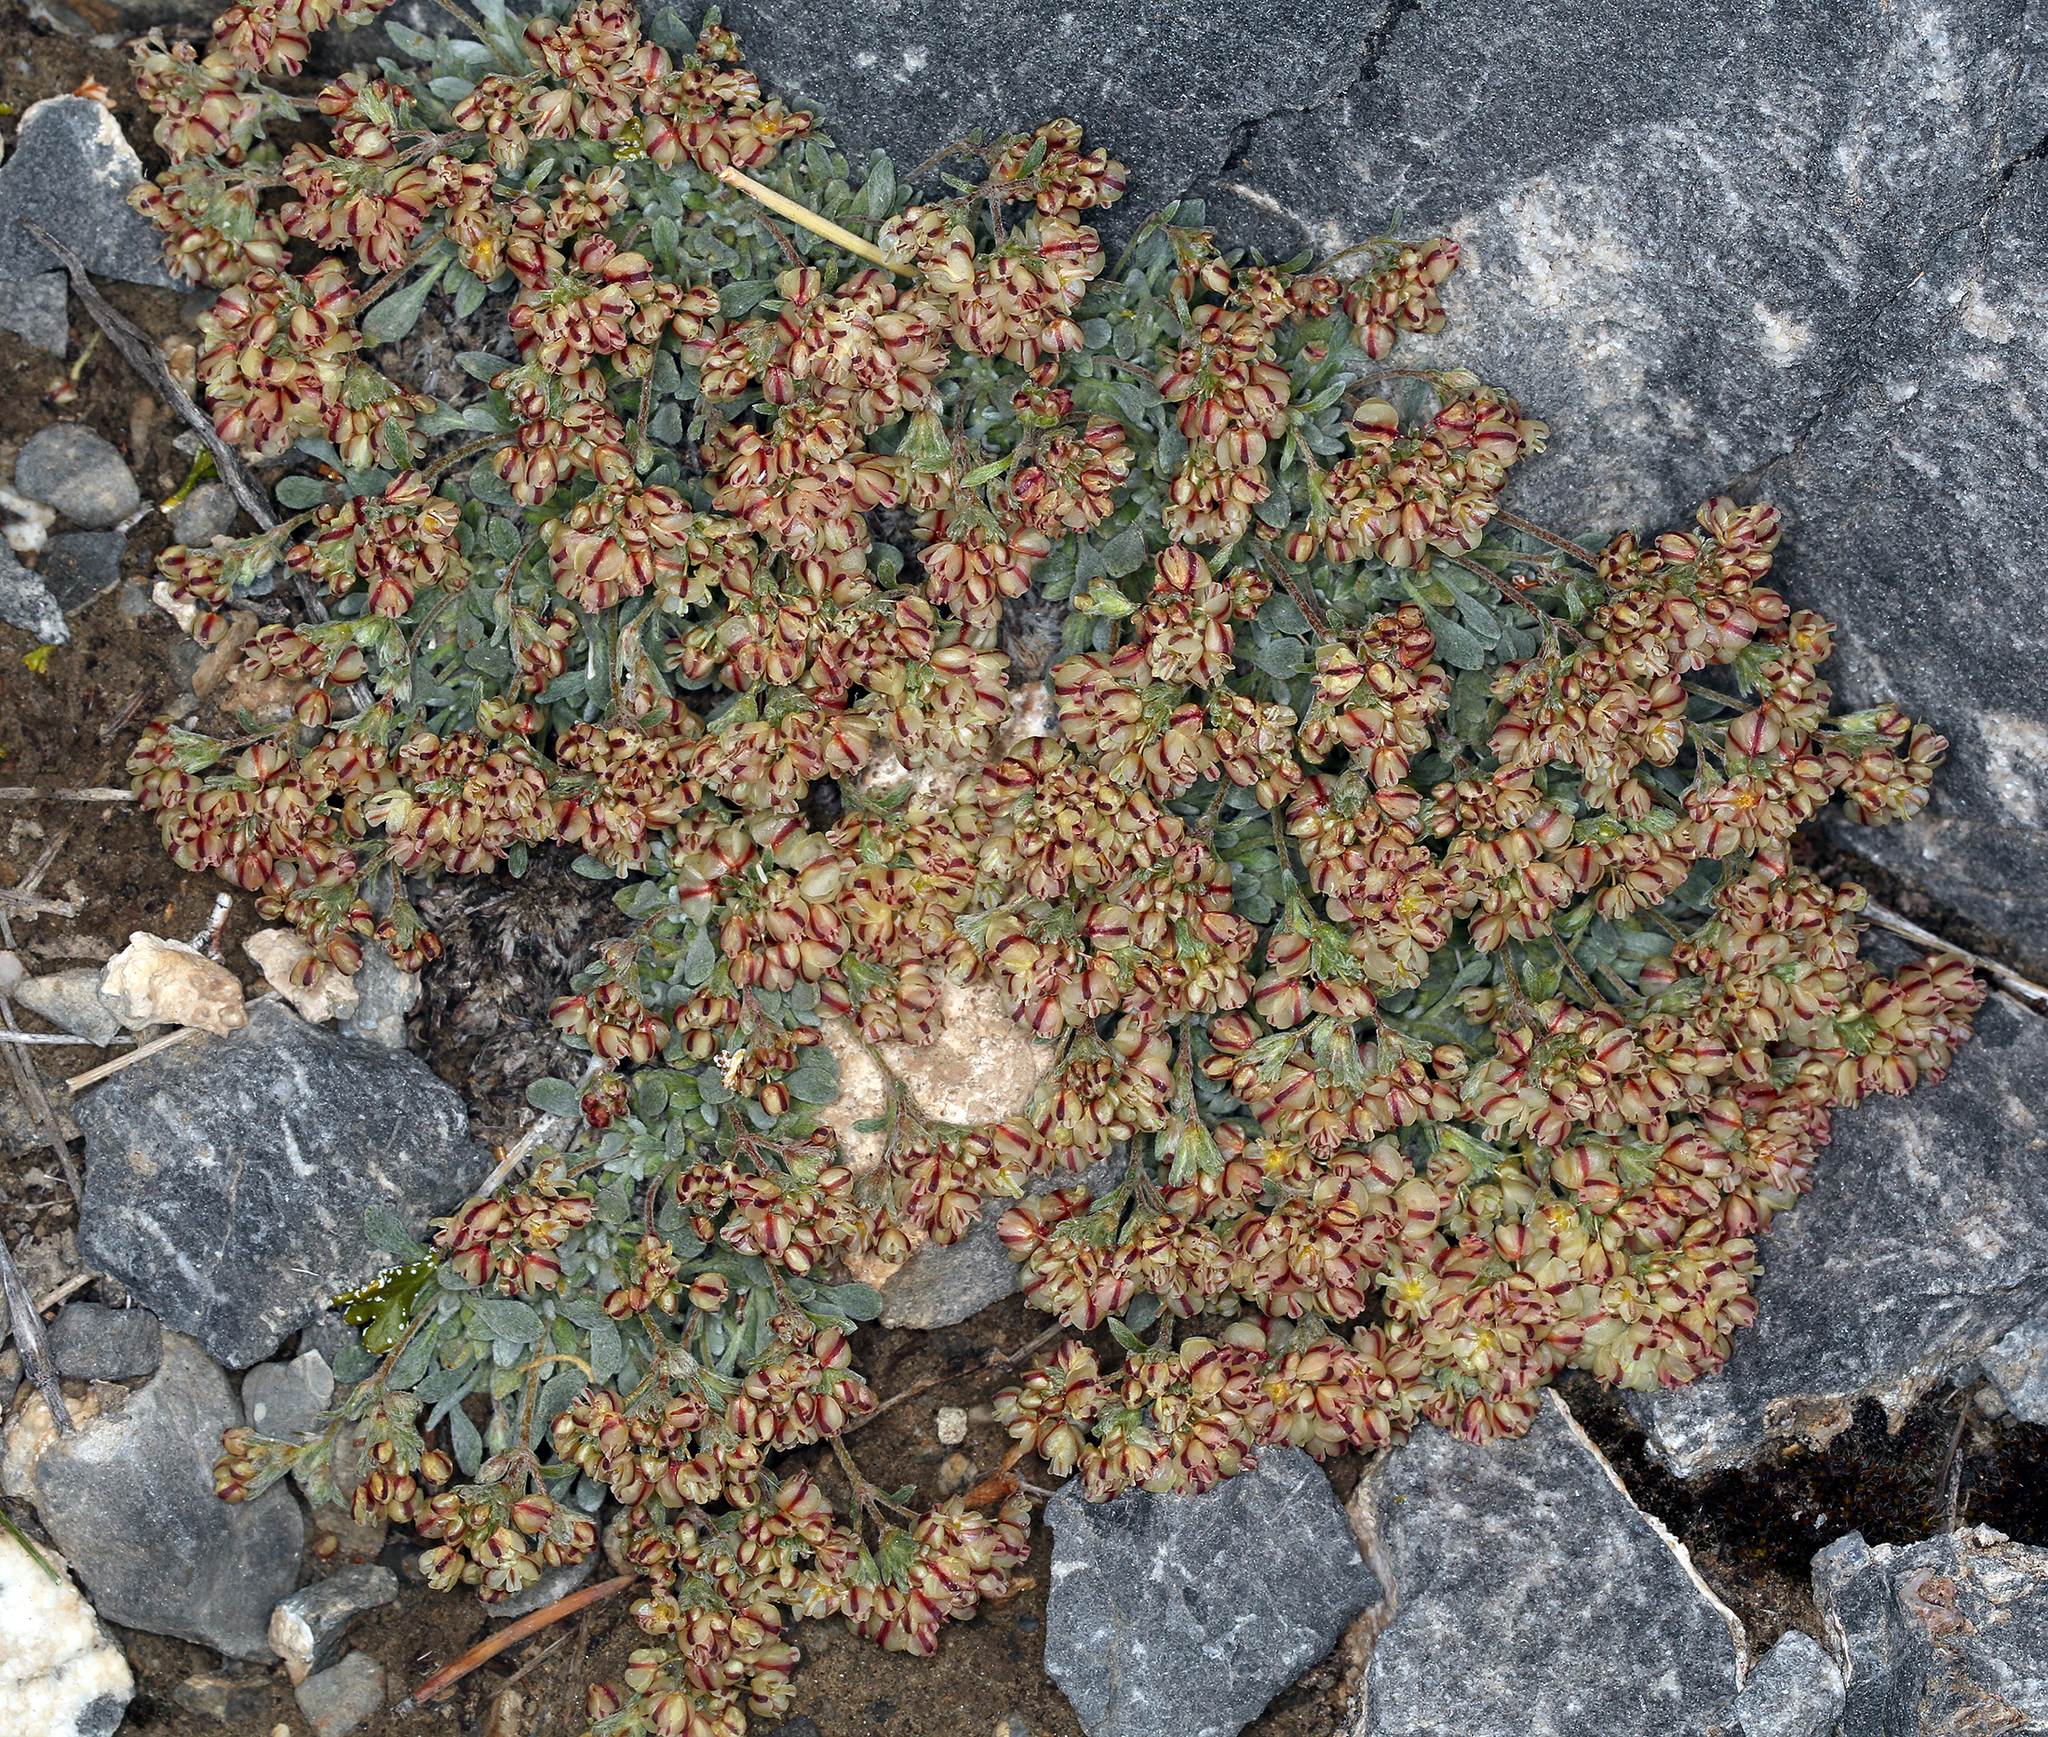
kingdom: Plantae
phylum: Tracheophyta
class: Magnoliopsida
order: Caryophyllales
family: Polygonaceae
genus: Eriogonum
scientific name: Eriogonum gilmanii
